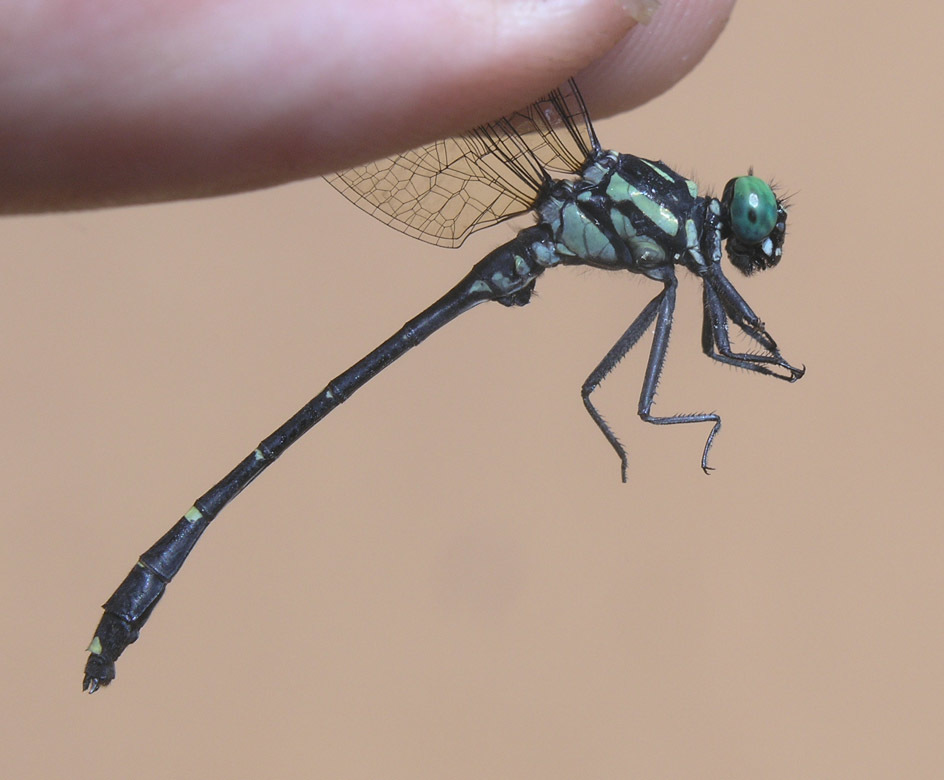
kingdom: Animalia
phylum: Arthropoda
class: Insecta
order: Odonata
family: Gomphidae
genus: Burmagomphus
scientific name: Burmagomphus divaricatus
